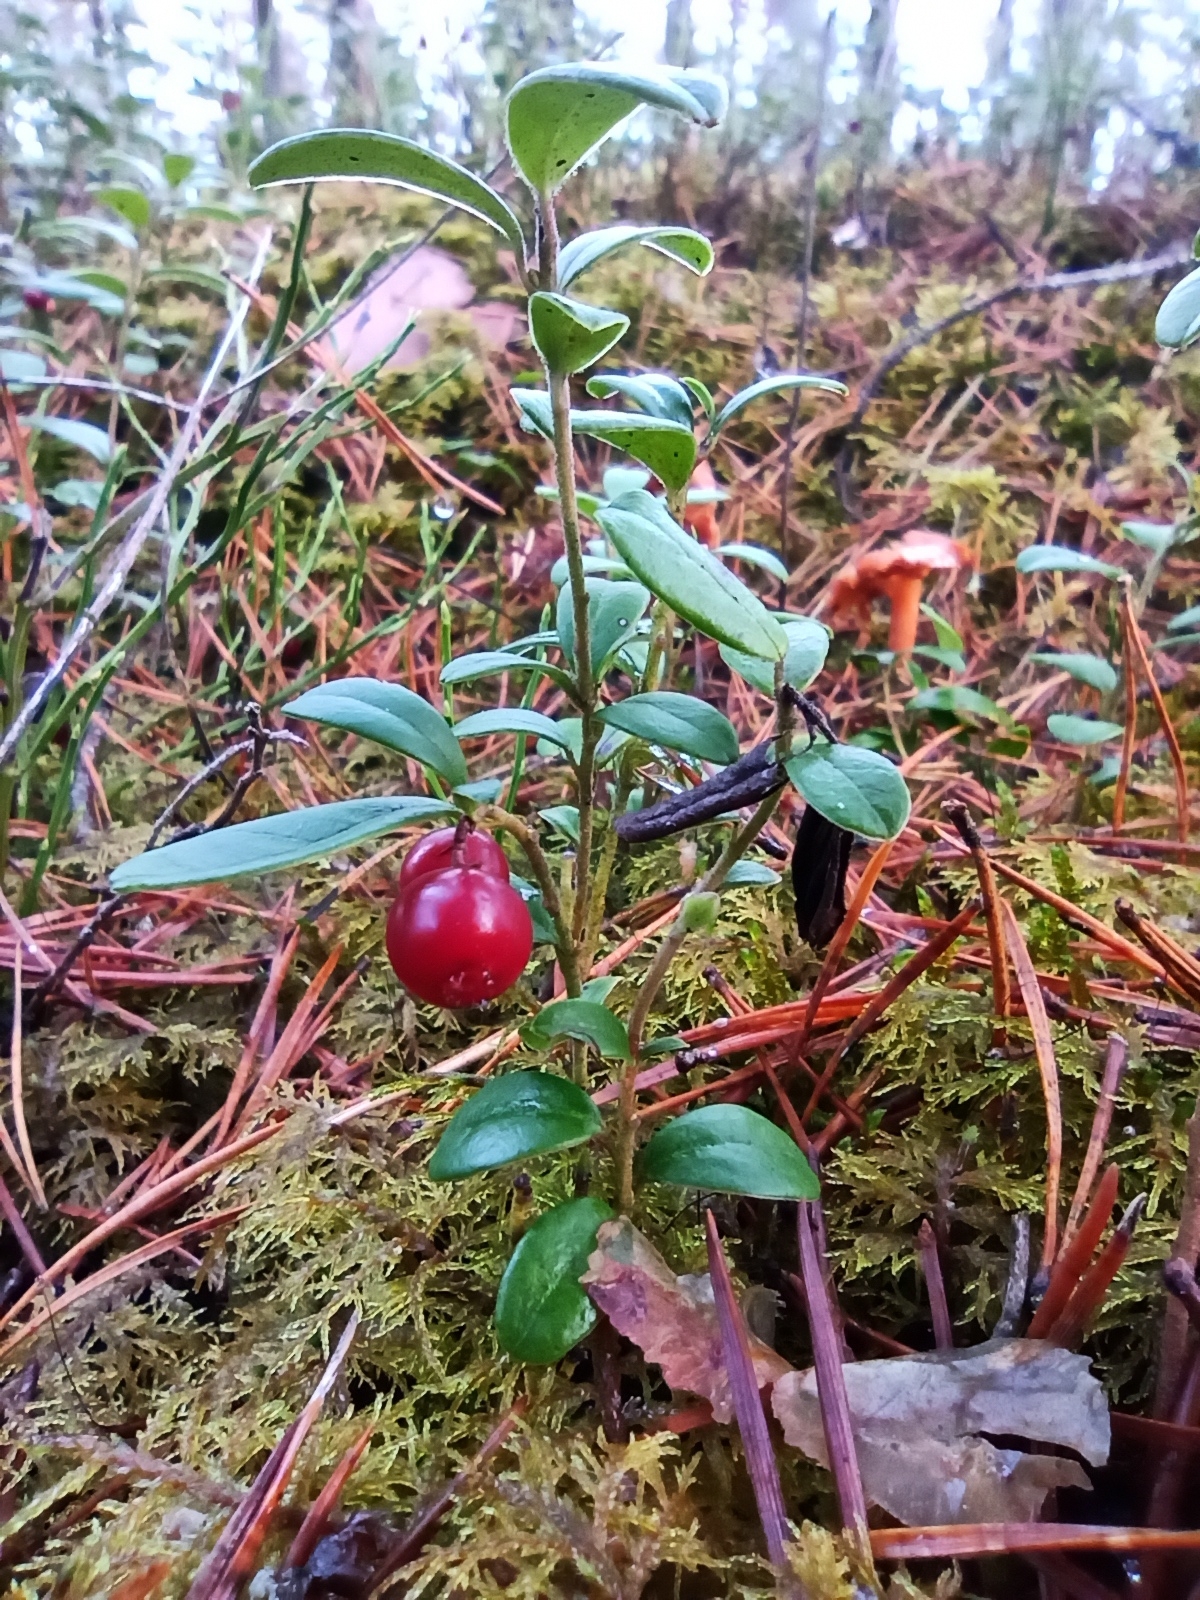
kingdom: Plantae
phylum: Tracheophyta
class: Magnoliopsida
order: Ericales
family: Ericaceae
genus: Vaccinium
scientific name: Vaccinium vitis-idaea
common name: Cowberry
